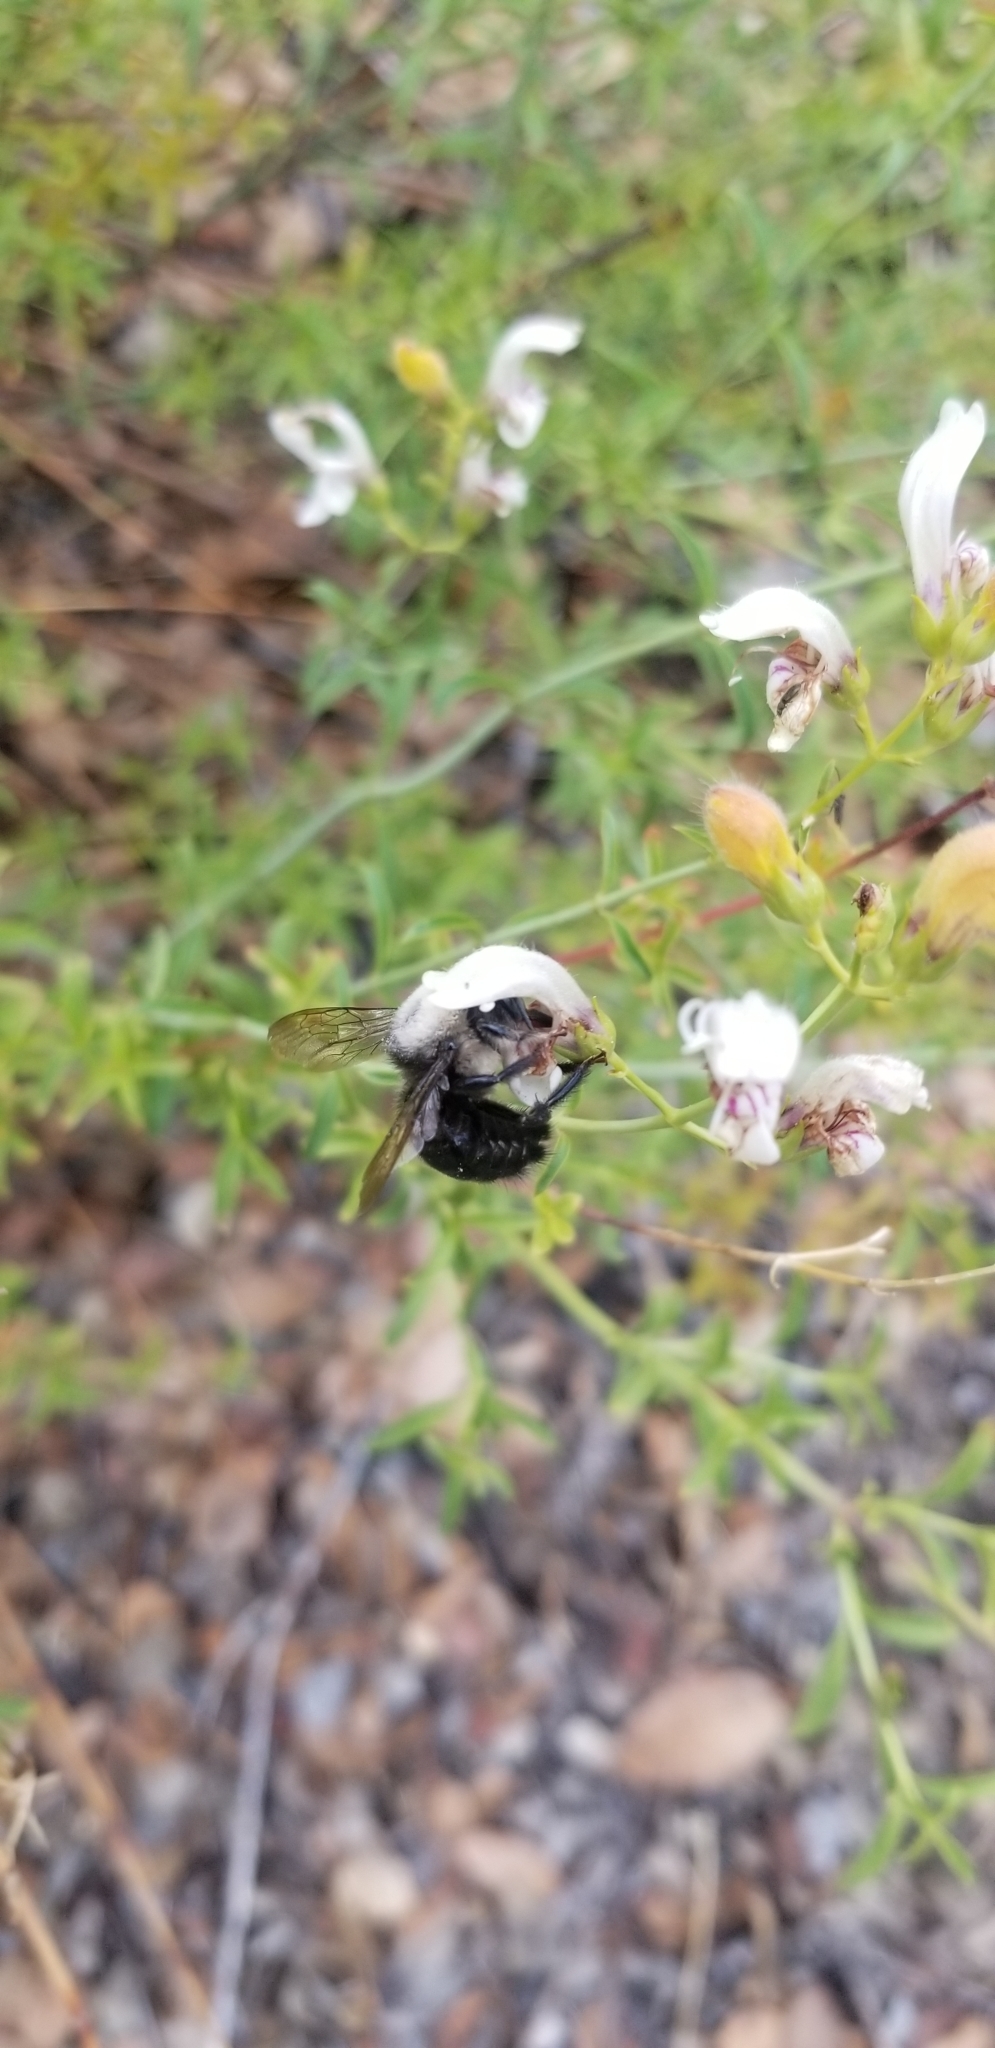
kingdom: Animalia
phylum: Arthropoda
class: Insecta
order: Hymenoptera
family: Apidae
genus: Xylocopa
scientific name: Xylocopa tabaniformis
